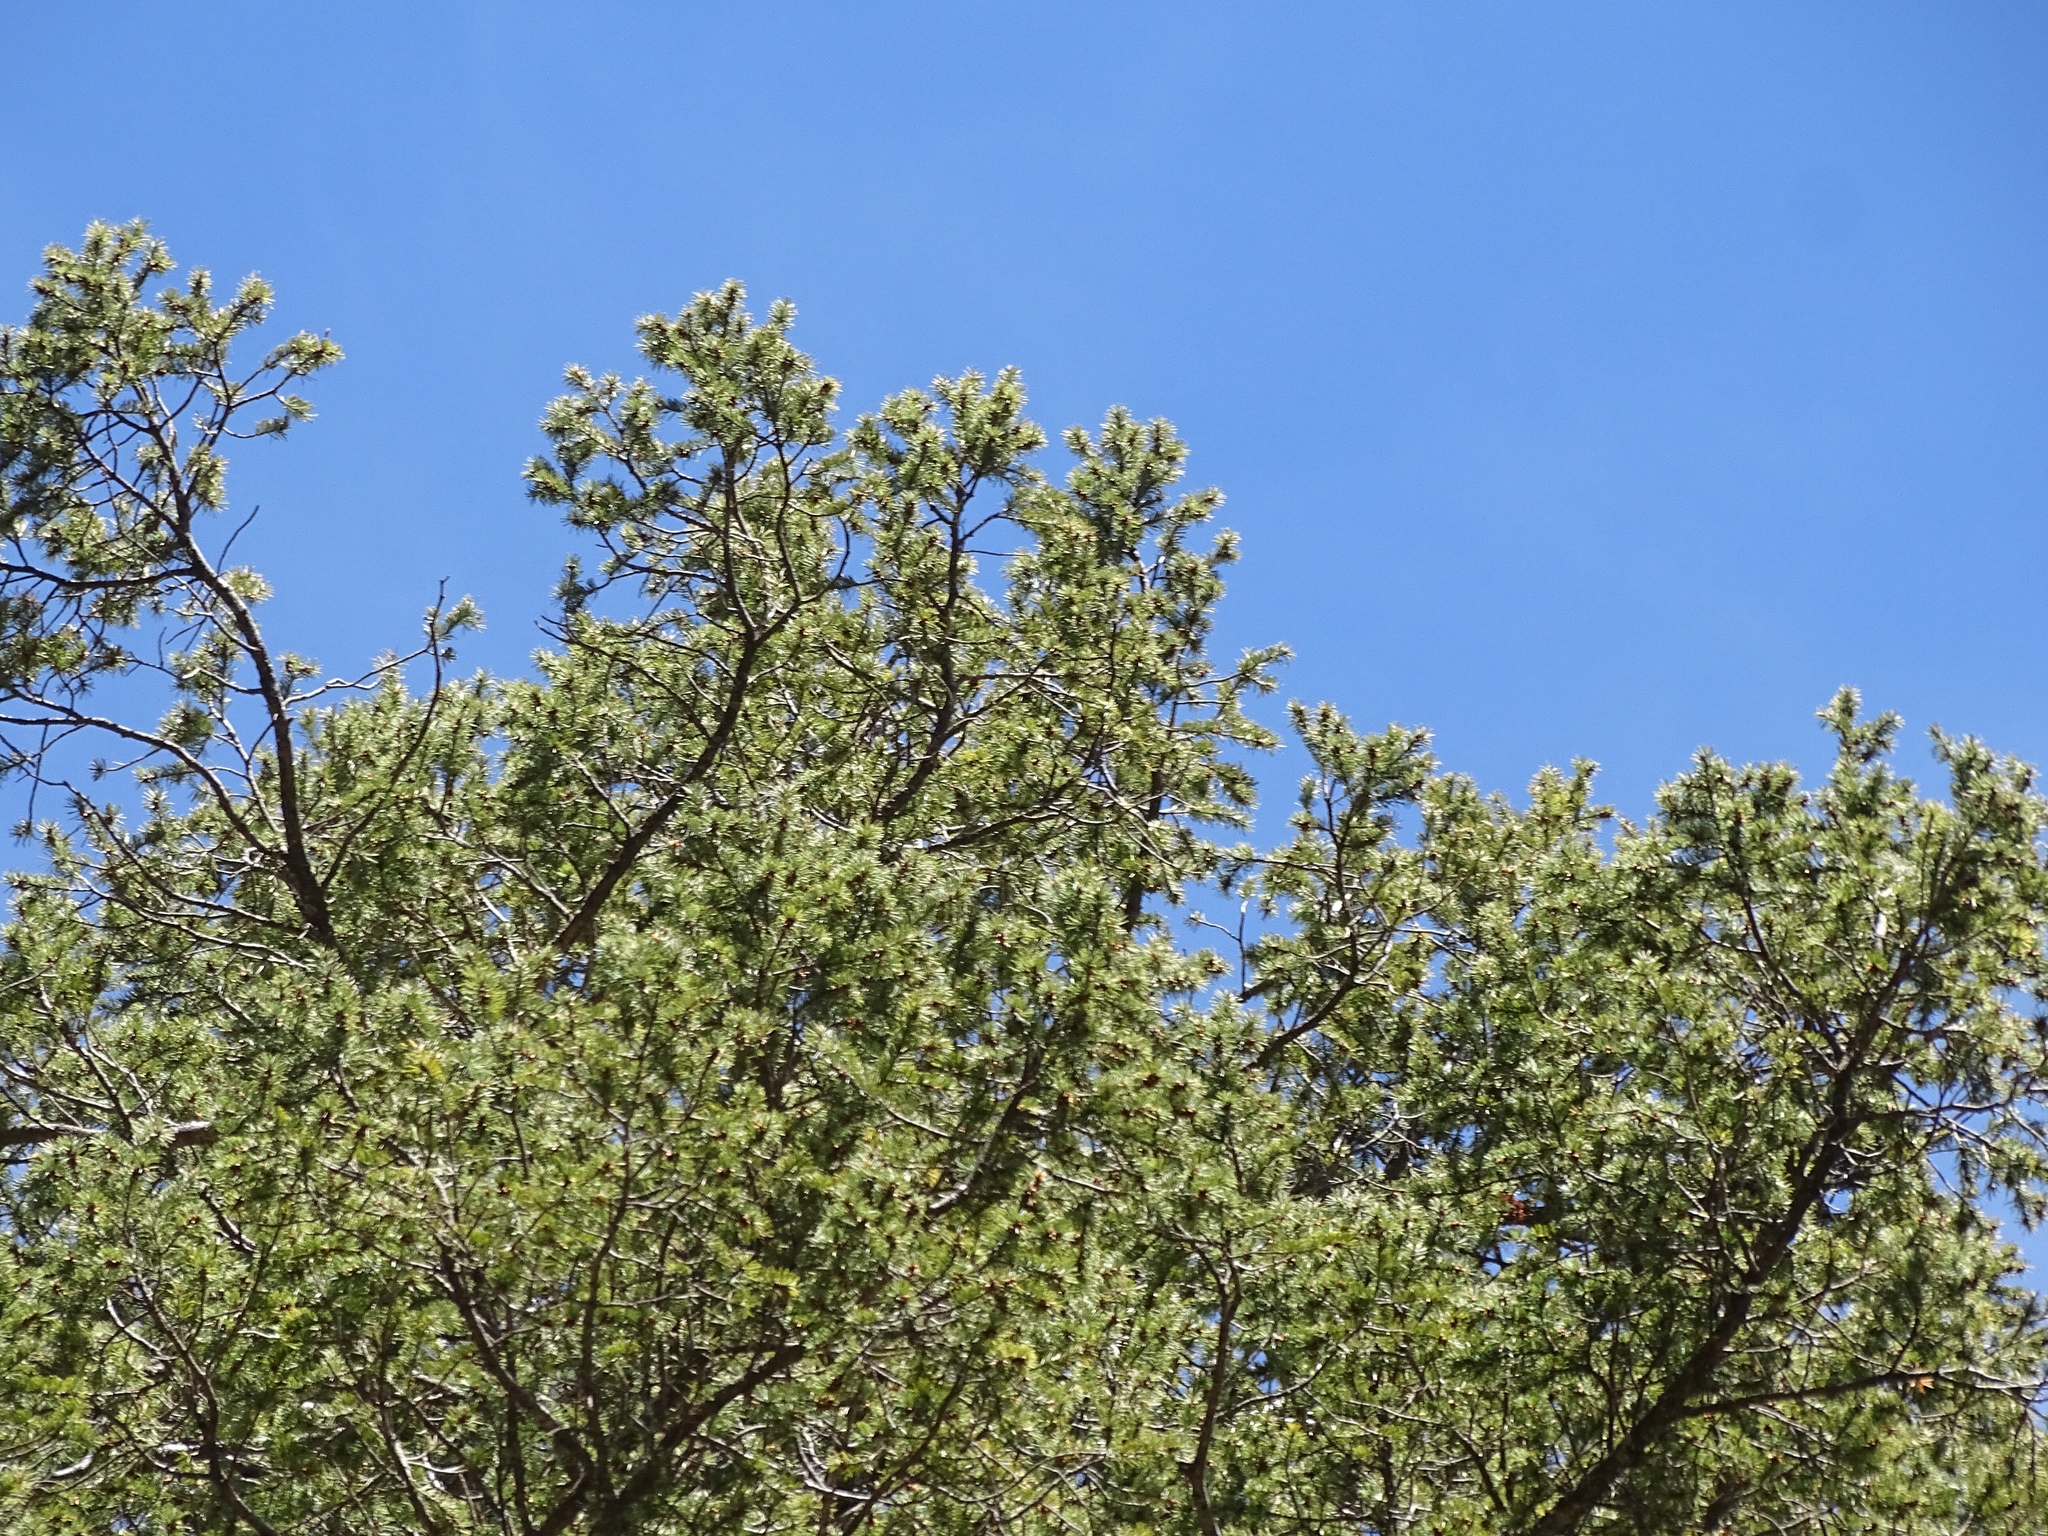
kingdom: Plantae
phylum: Tracheophyta
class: Pinopsida
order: Pinales
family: Pinaceae
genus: Pseudotsuga
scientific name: Pseudotsuga menziesii
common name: Douglas fir
